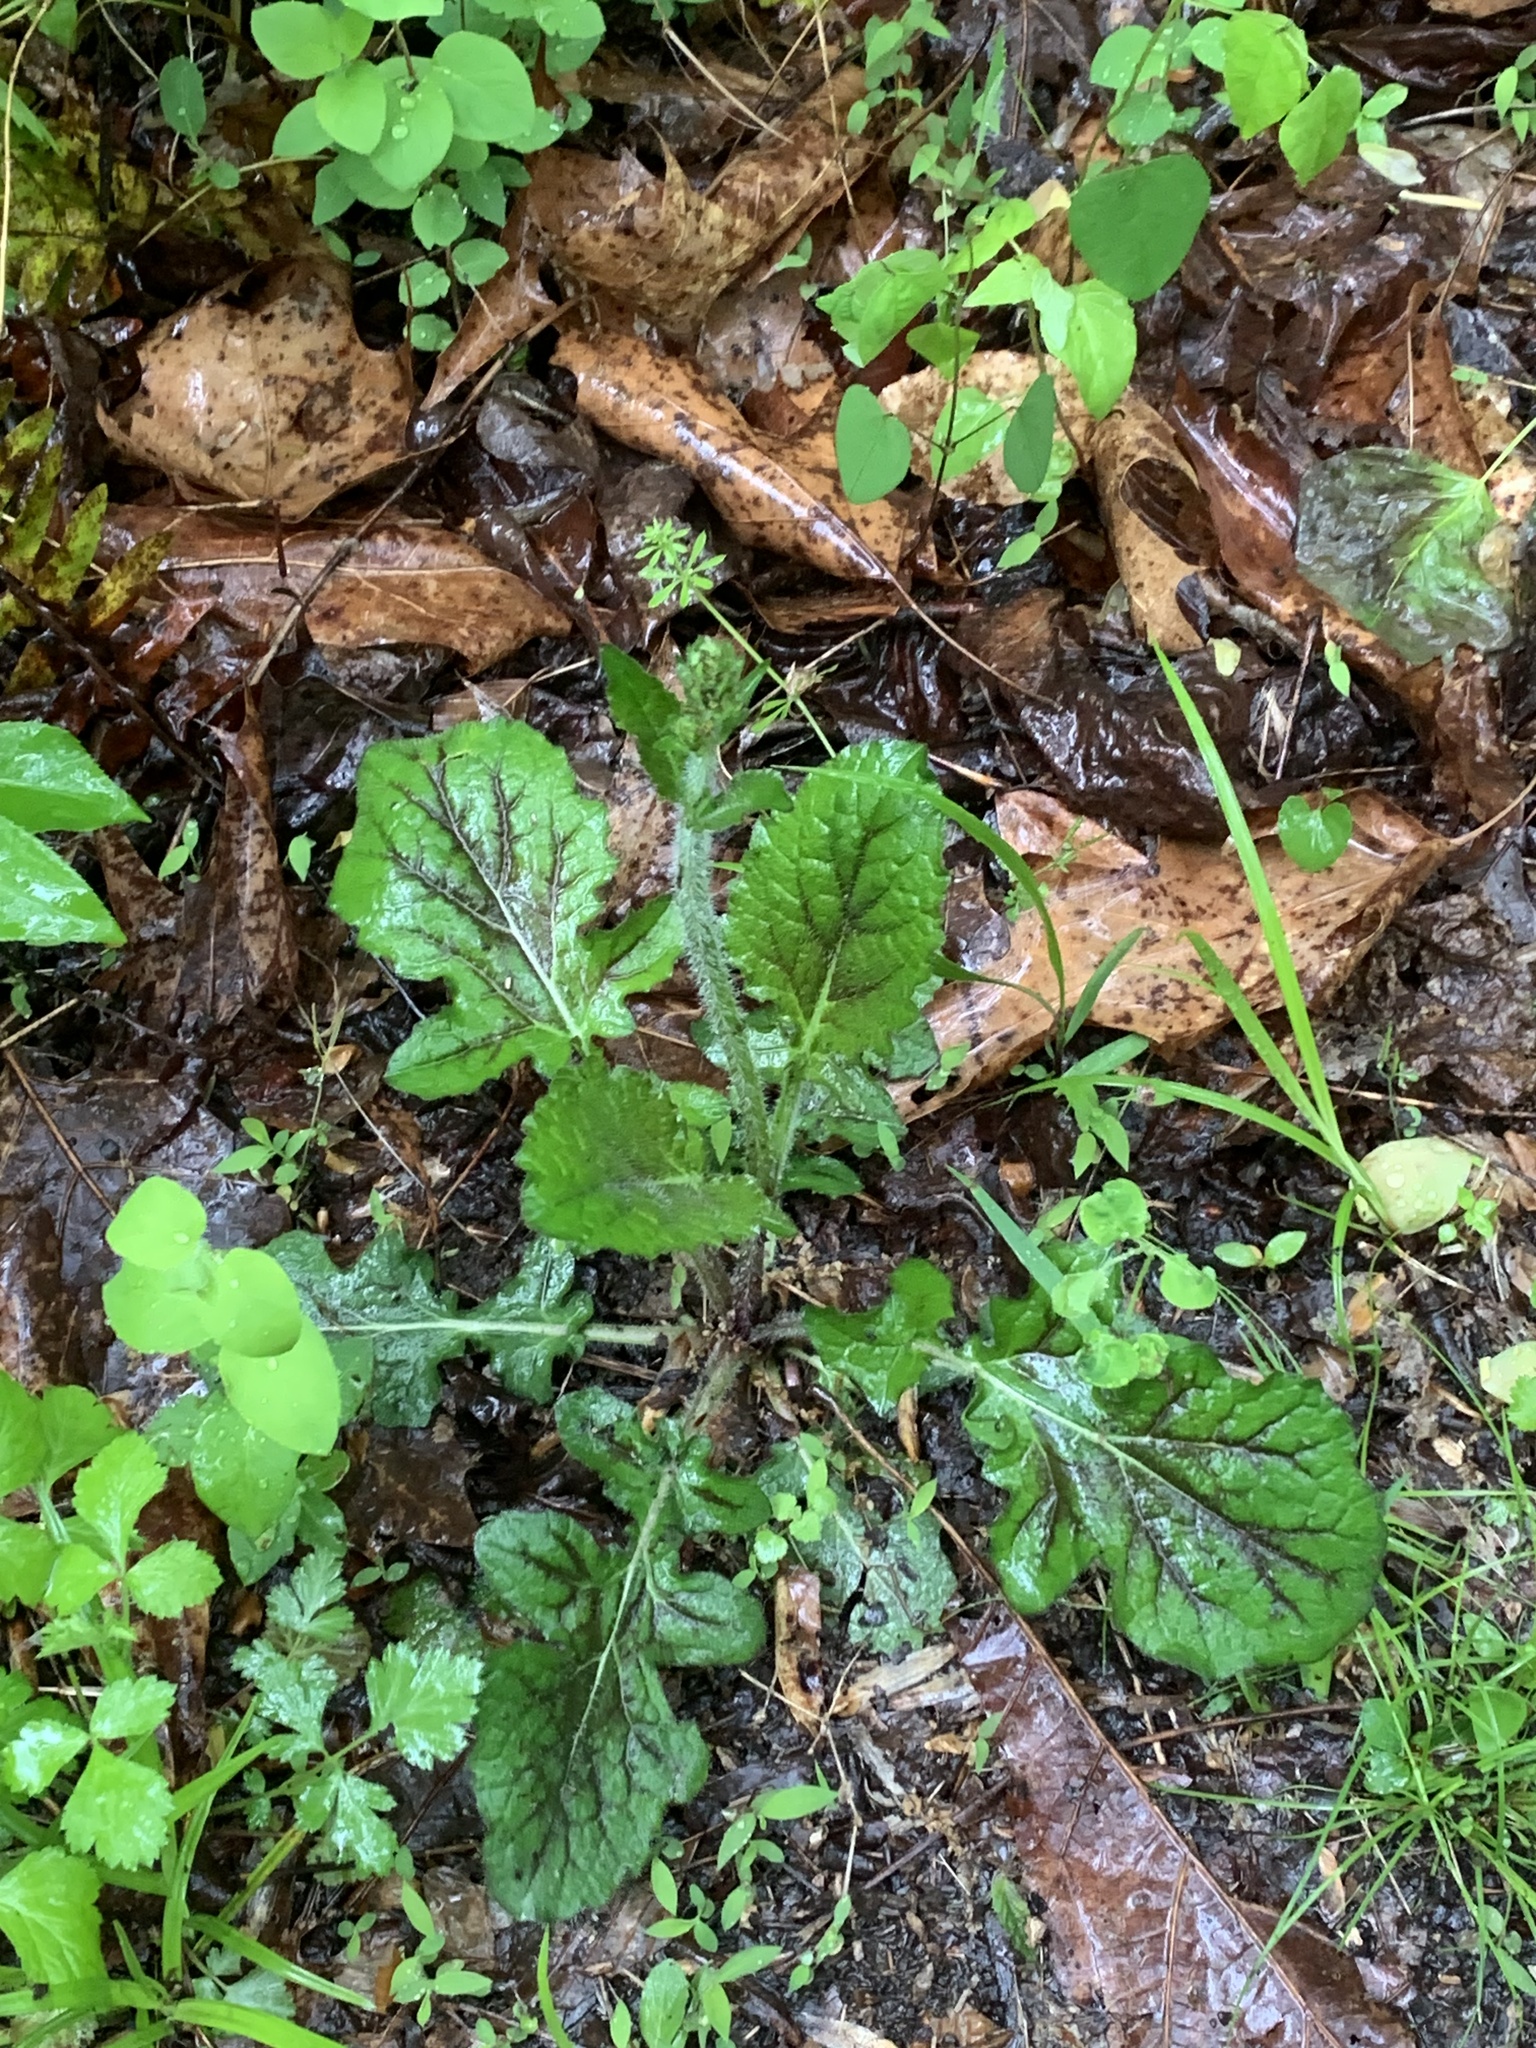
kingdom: Plantae
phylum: Tracheophyta
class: Magnoliopsida
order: Lamiales
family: Lamiaceae
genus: Salvia
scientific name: Salvia lyrata
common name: Cancerweed
